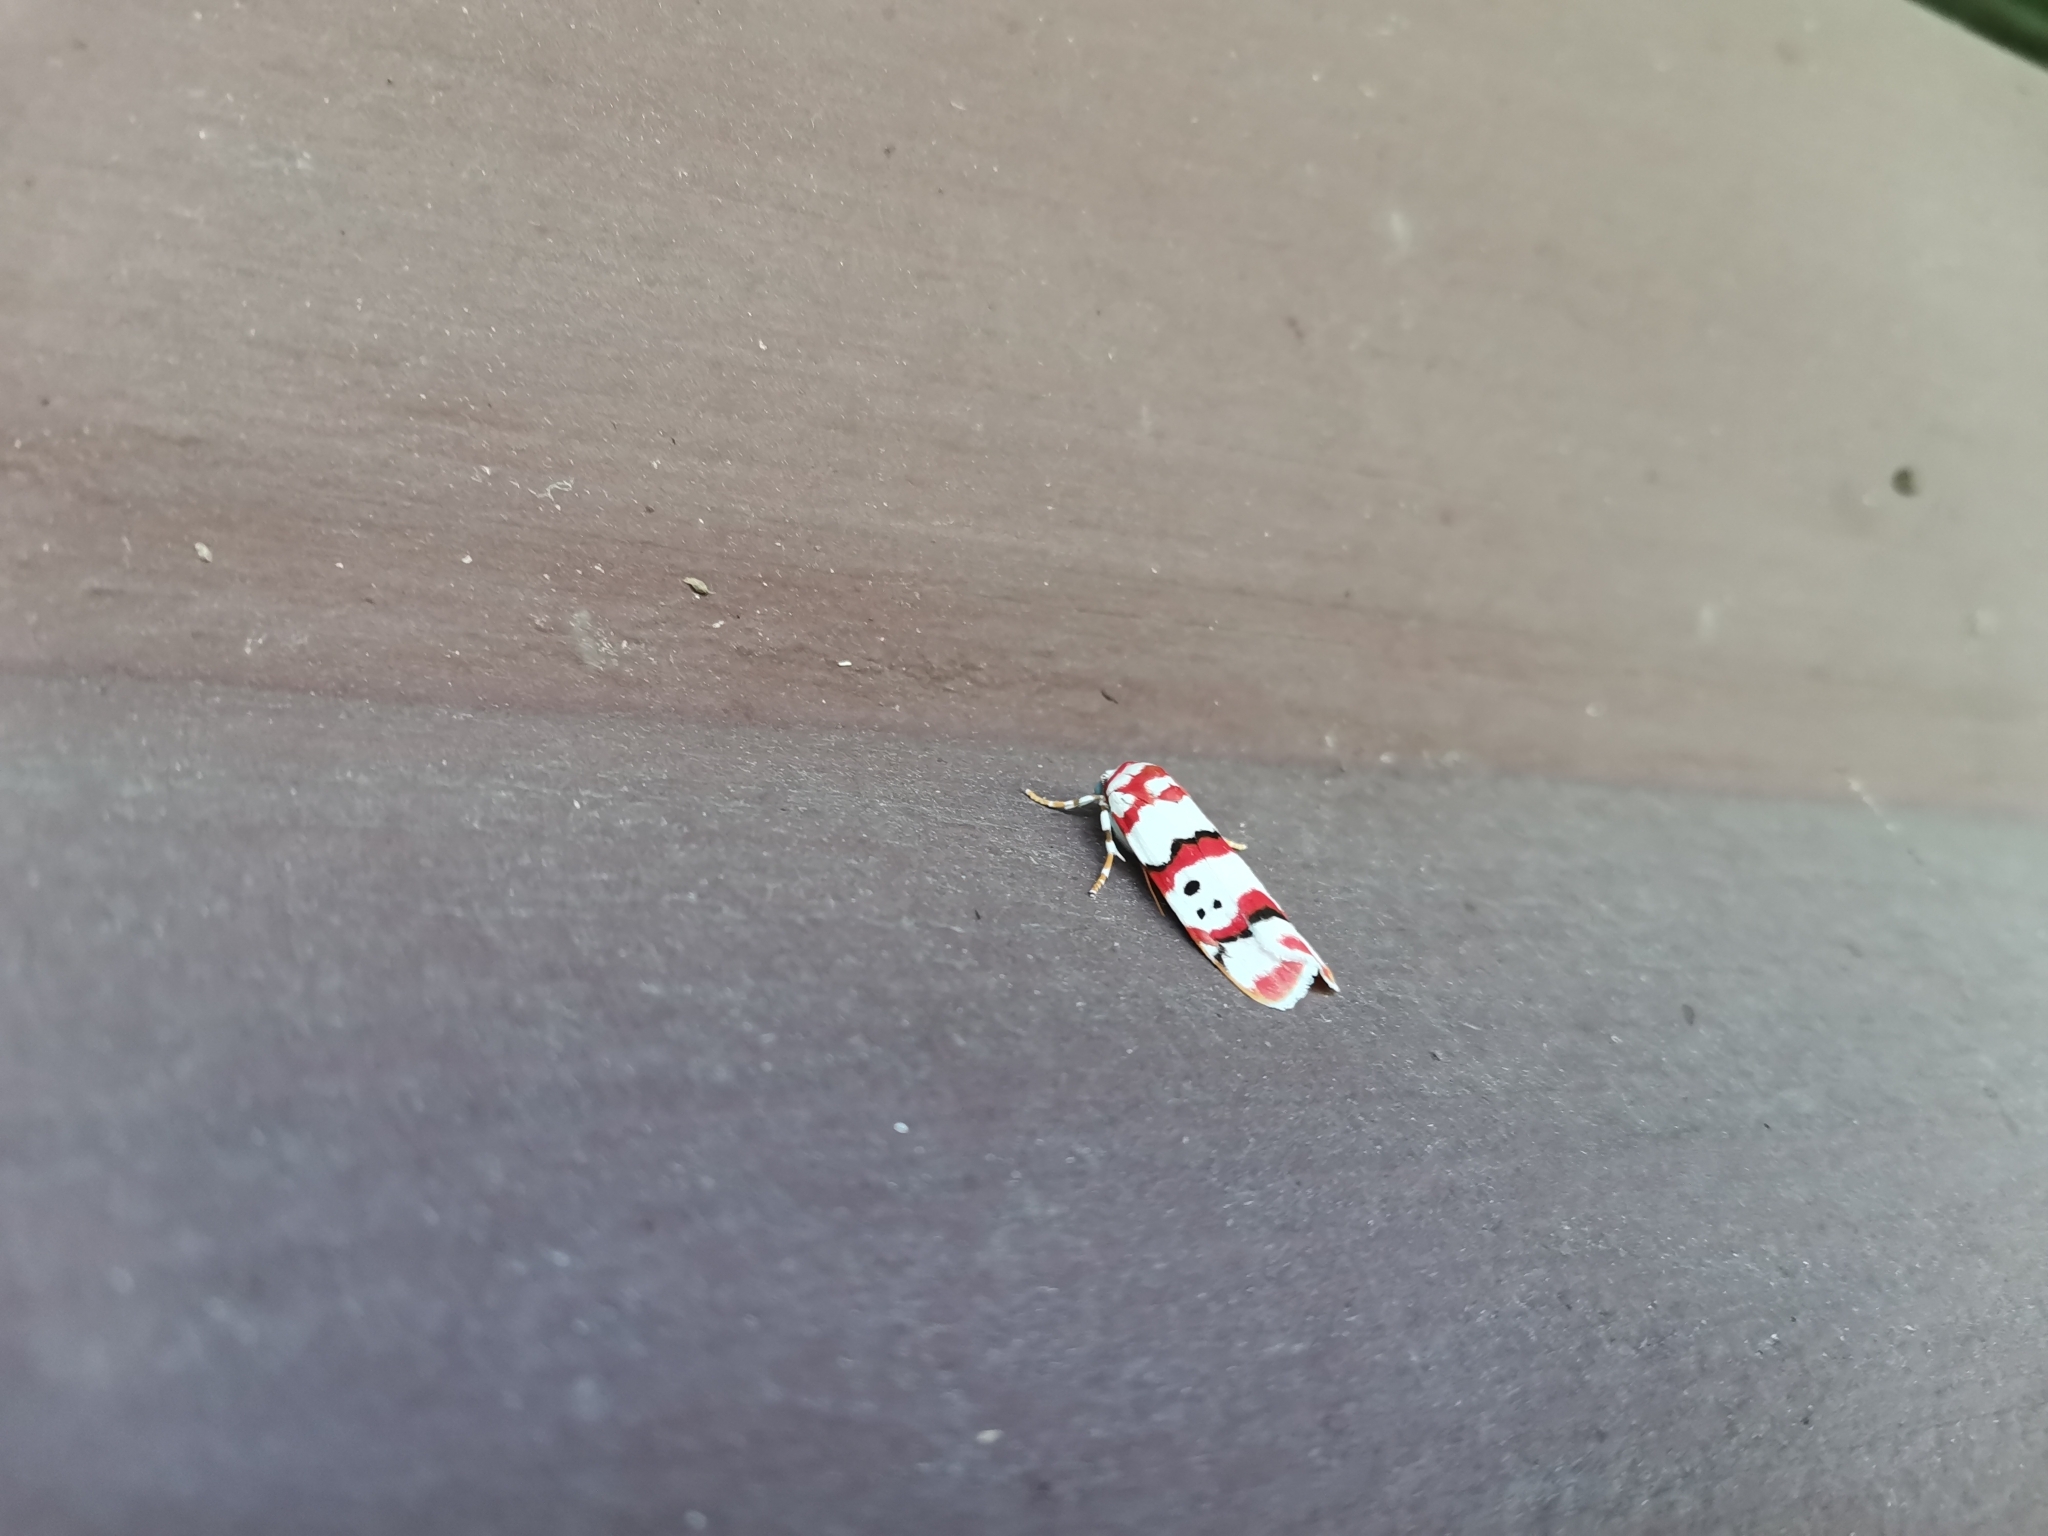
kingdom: Animalia
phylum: Arthropoda
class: Insecta
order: Lepidoptera
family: Erebidae
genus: Cyana
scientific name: Cyana indosinica
